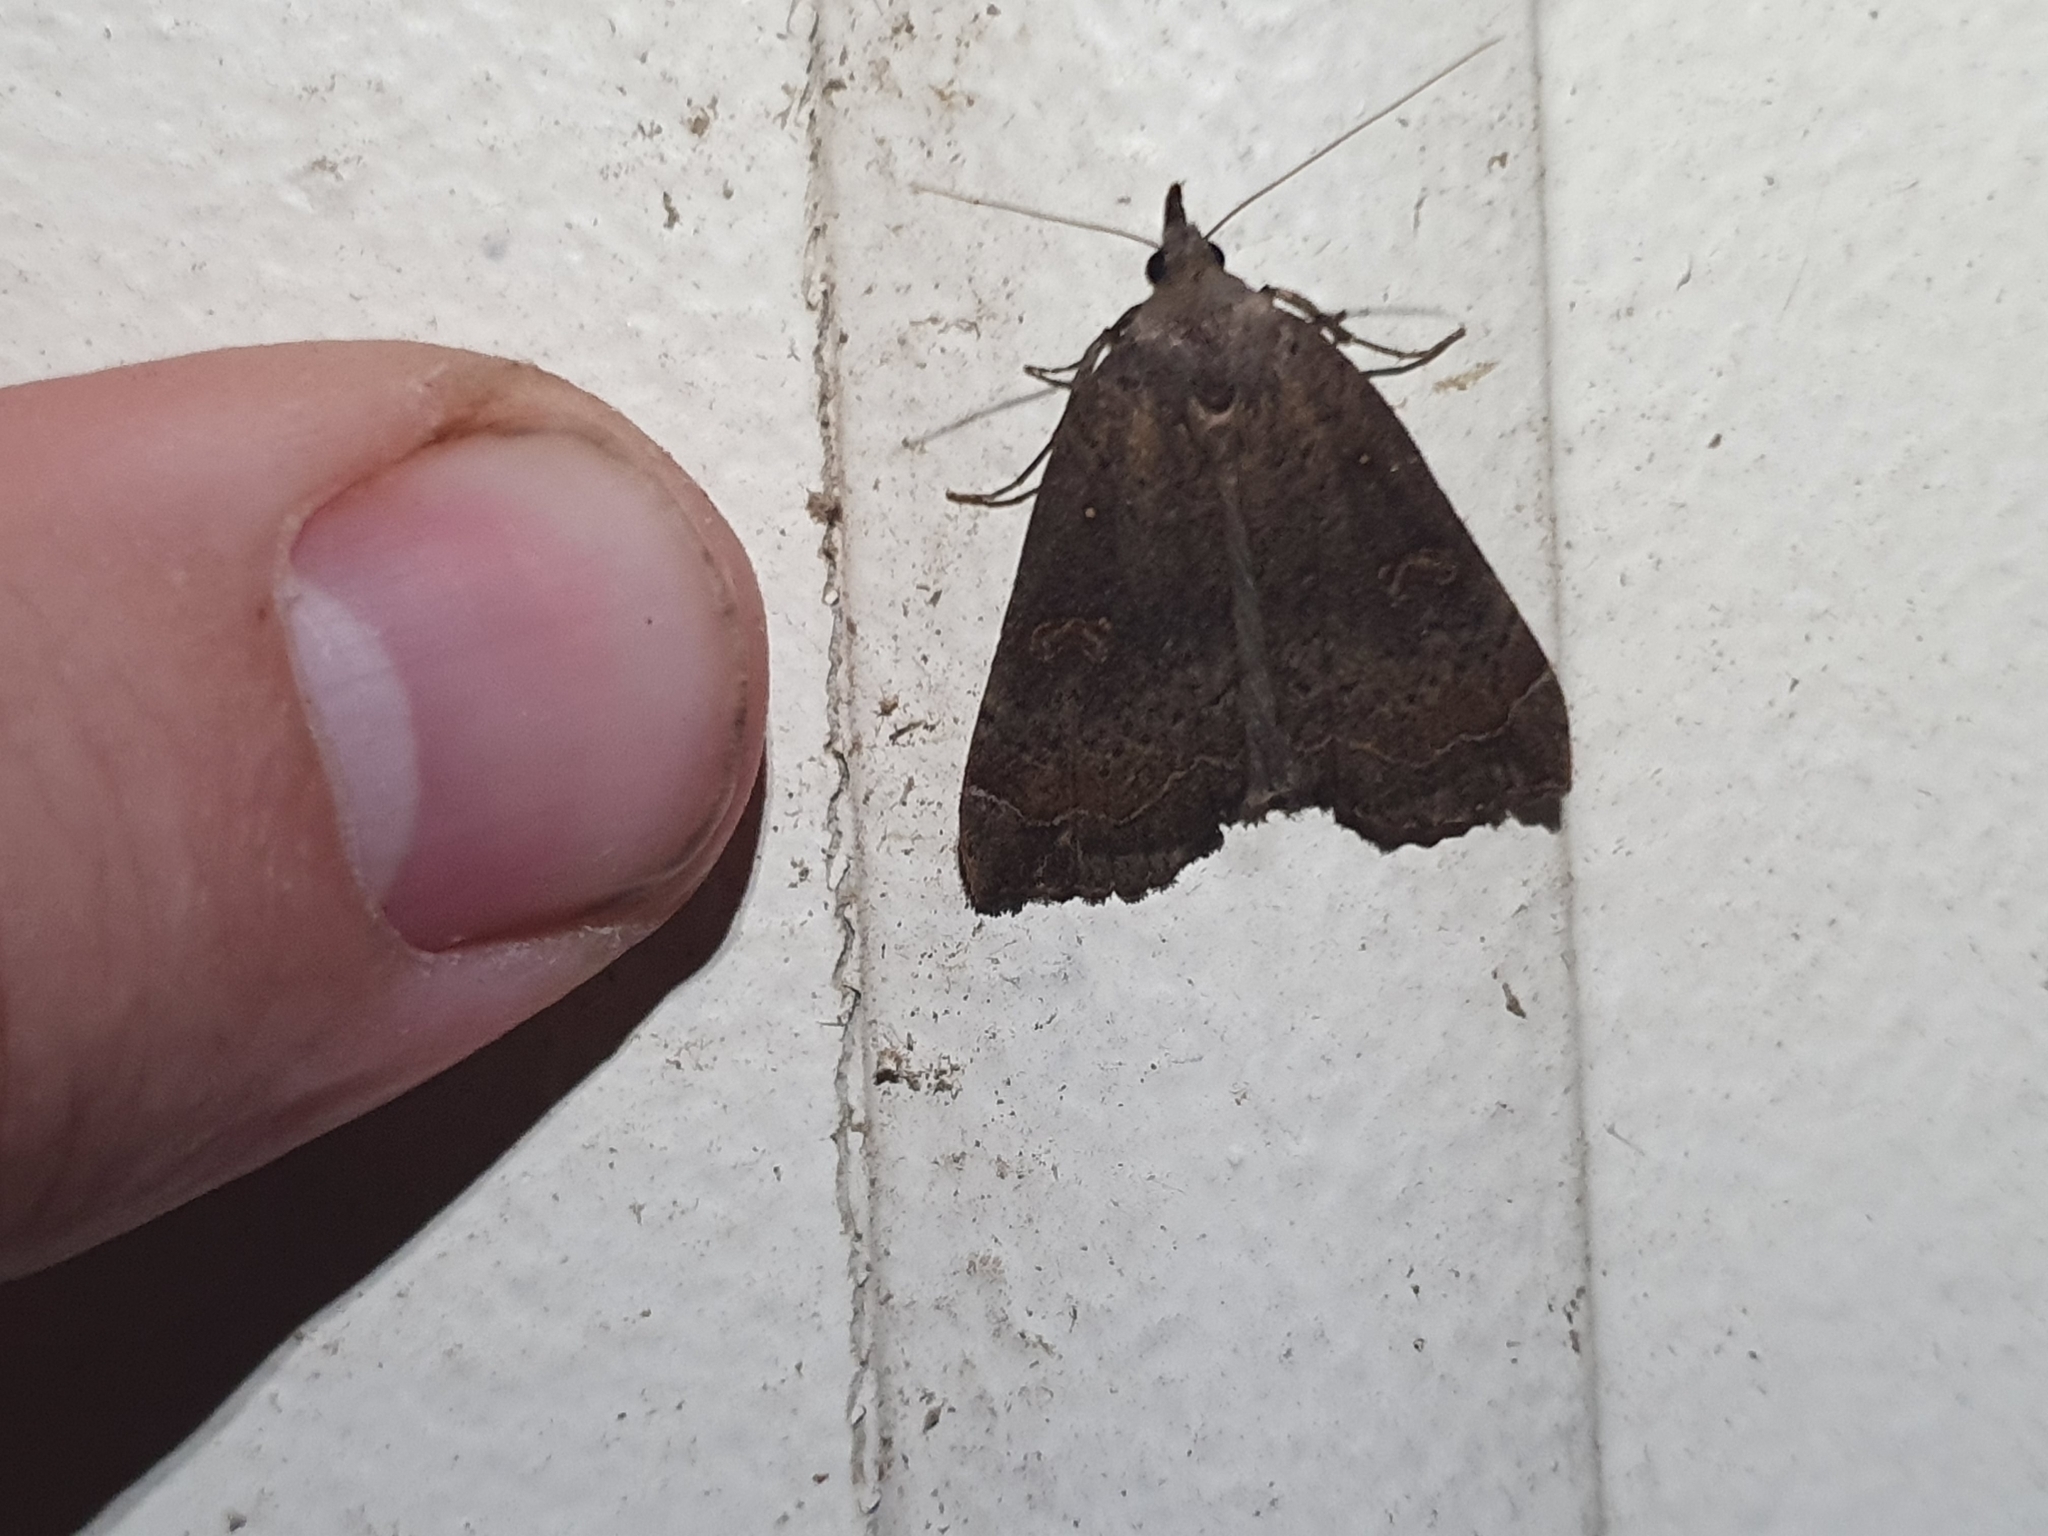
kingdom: Animalia
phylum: Arthropoda
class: Insecta
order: Lepidoptera
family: Erebidae
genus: Rhapsa
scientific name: Rhapsa scotosialis
